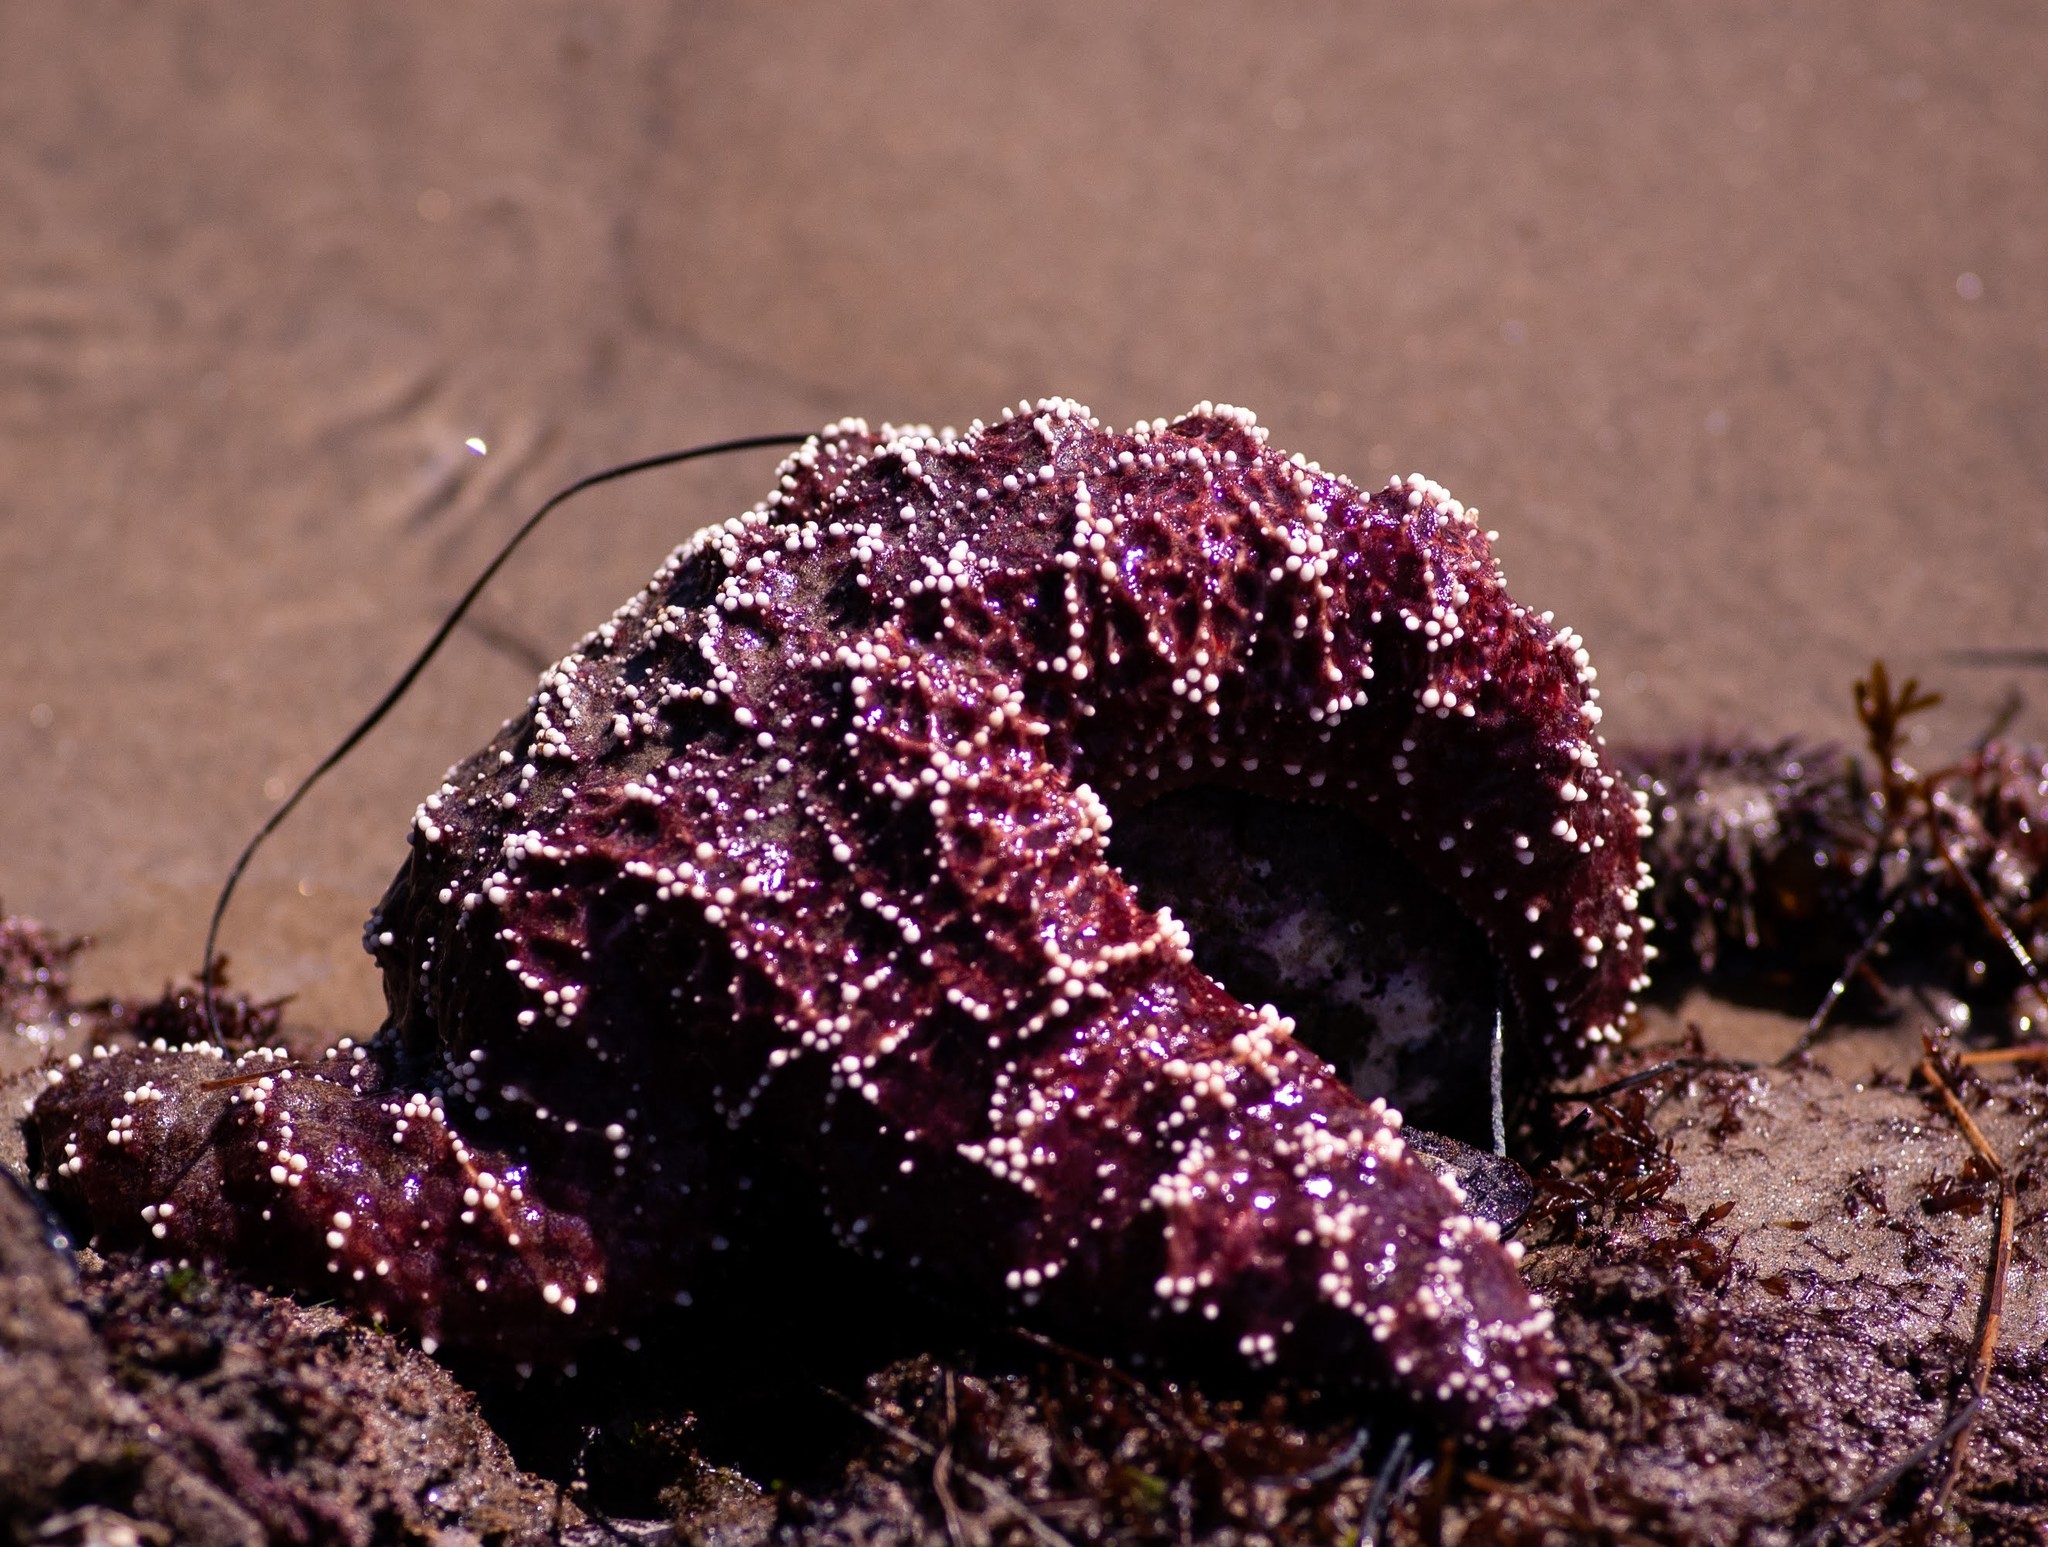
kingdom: Animalia
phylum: Echinodermata
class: Asteroidea
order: Forcipulatida
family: Asteriidae
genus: Pisaster
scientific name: Pisaster ochraceus
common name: Ochre stars
